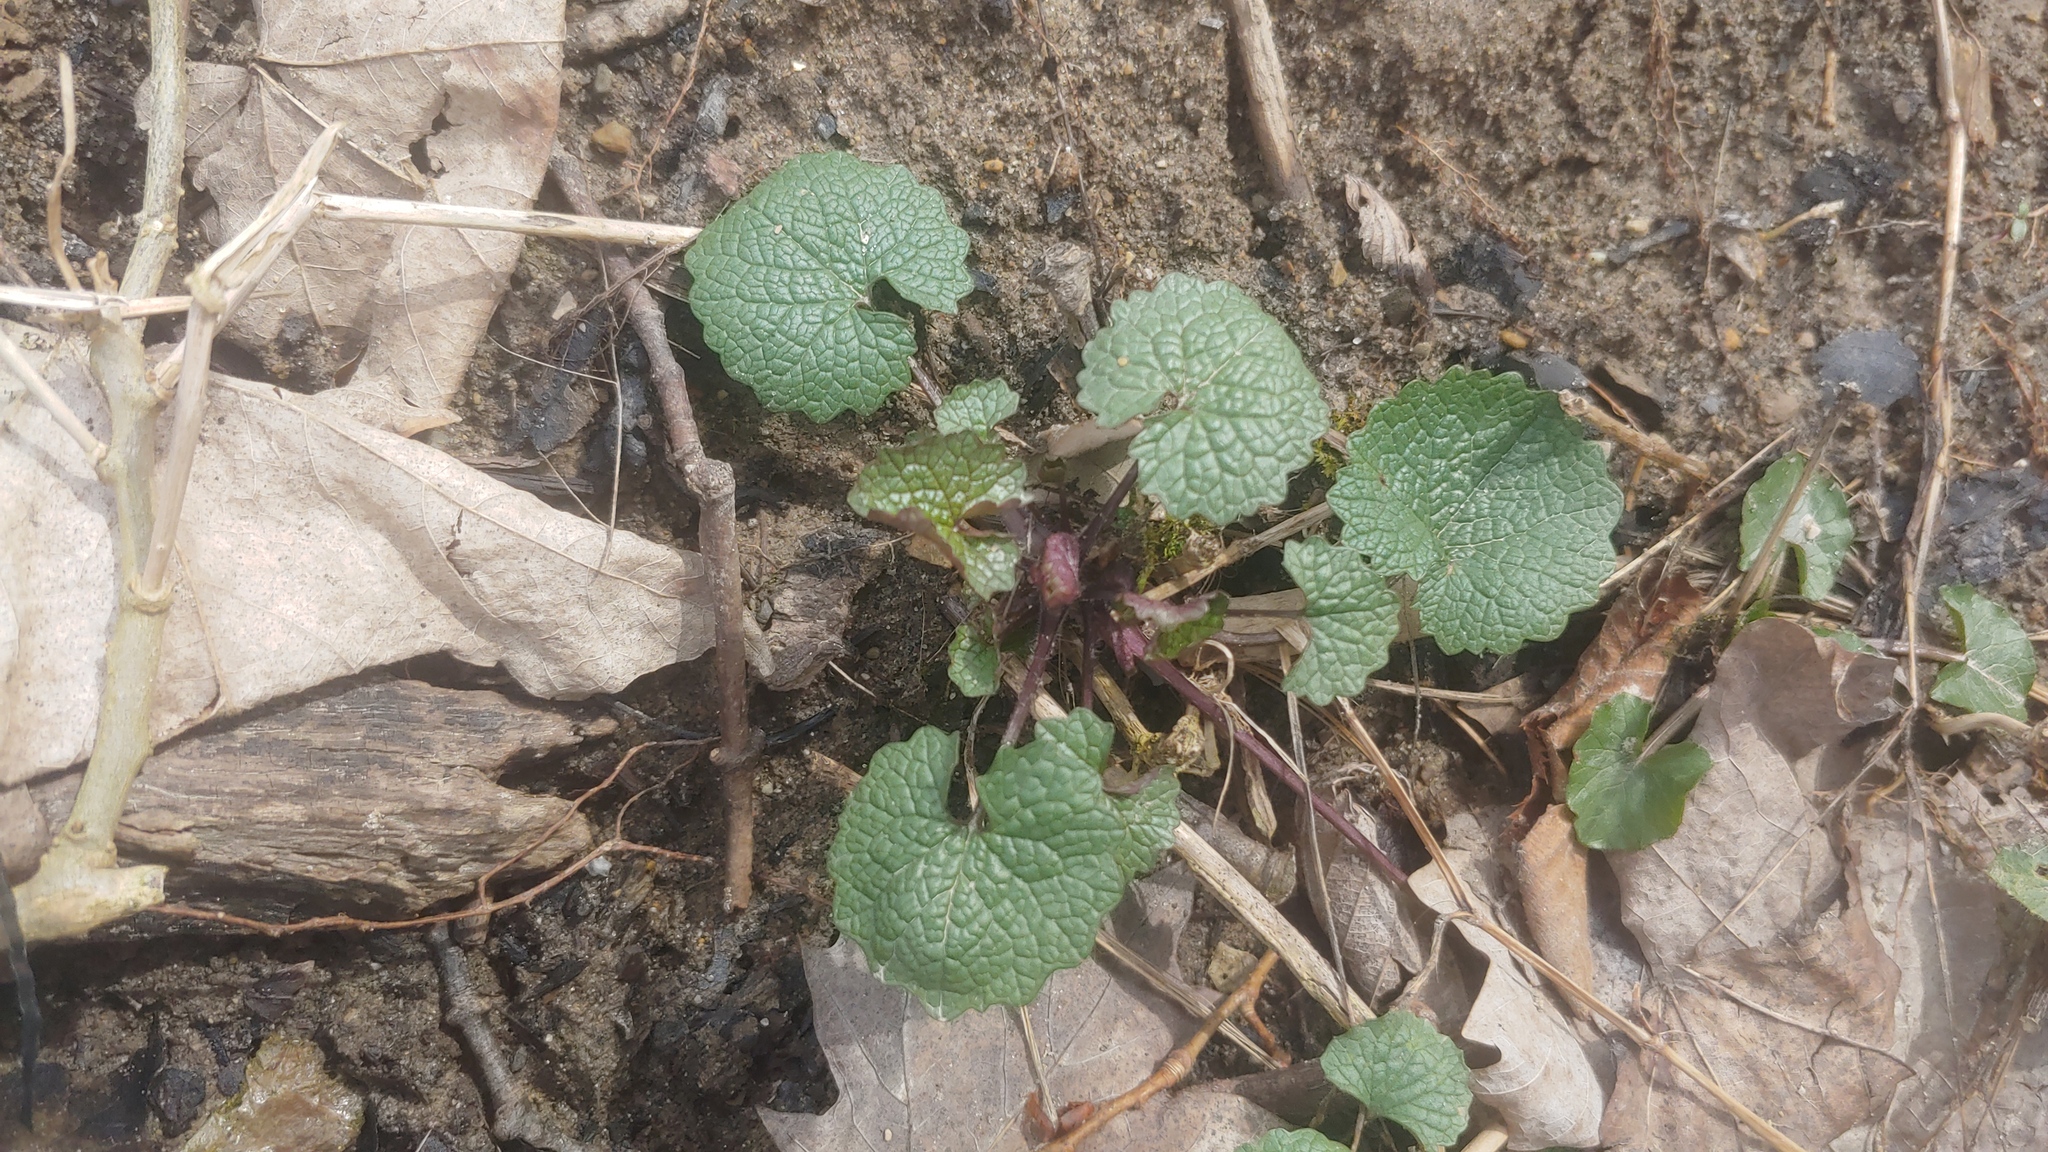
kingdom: Plantae
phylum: Tracheophyta
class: Magnoliopsida
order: Brassicales
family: Brassicaceae
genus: Alliaria
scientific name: Alliaria petiolata
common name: Garlic mustard
